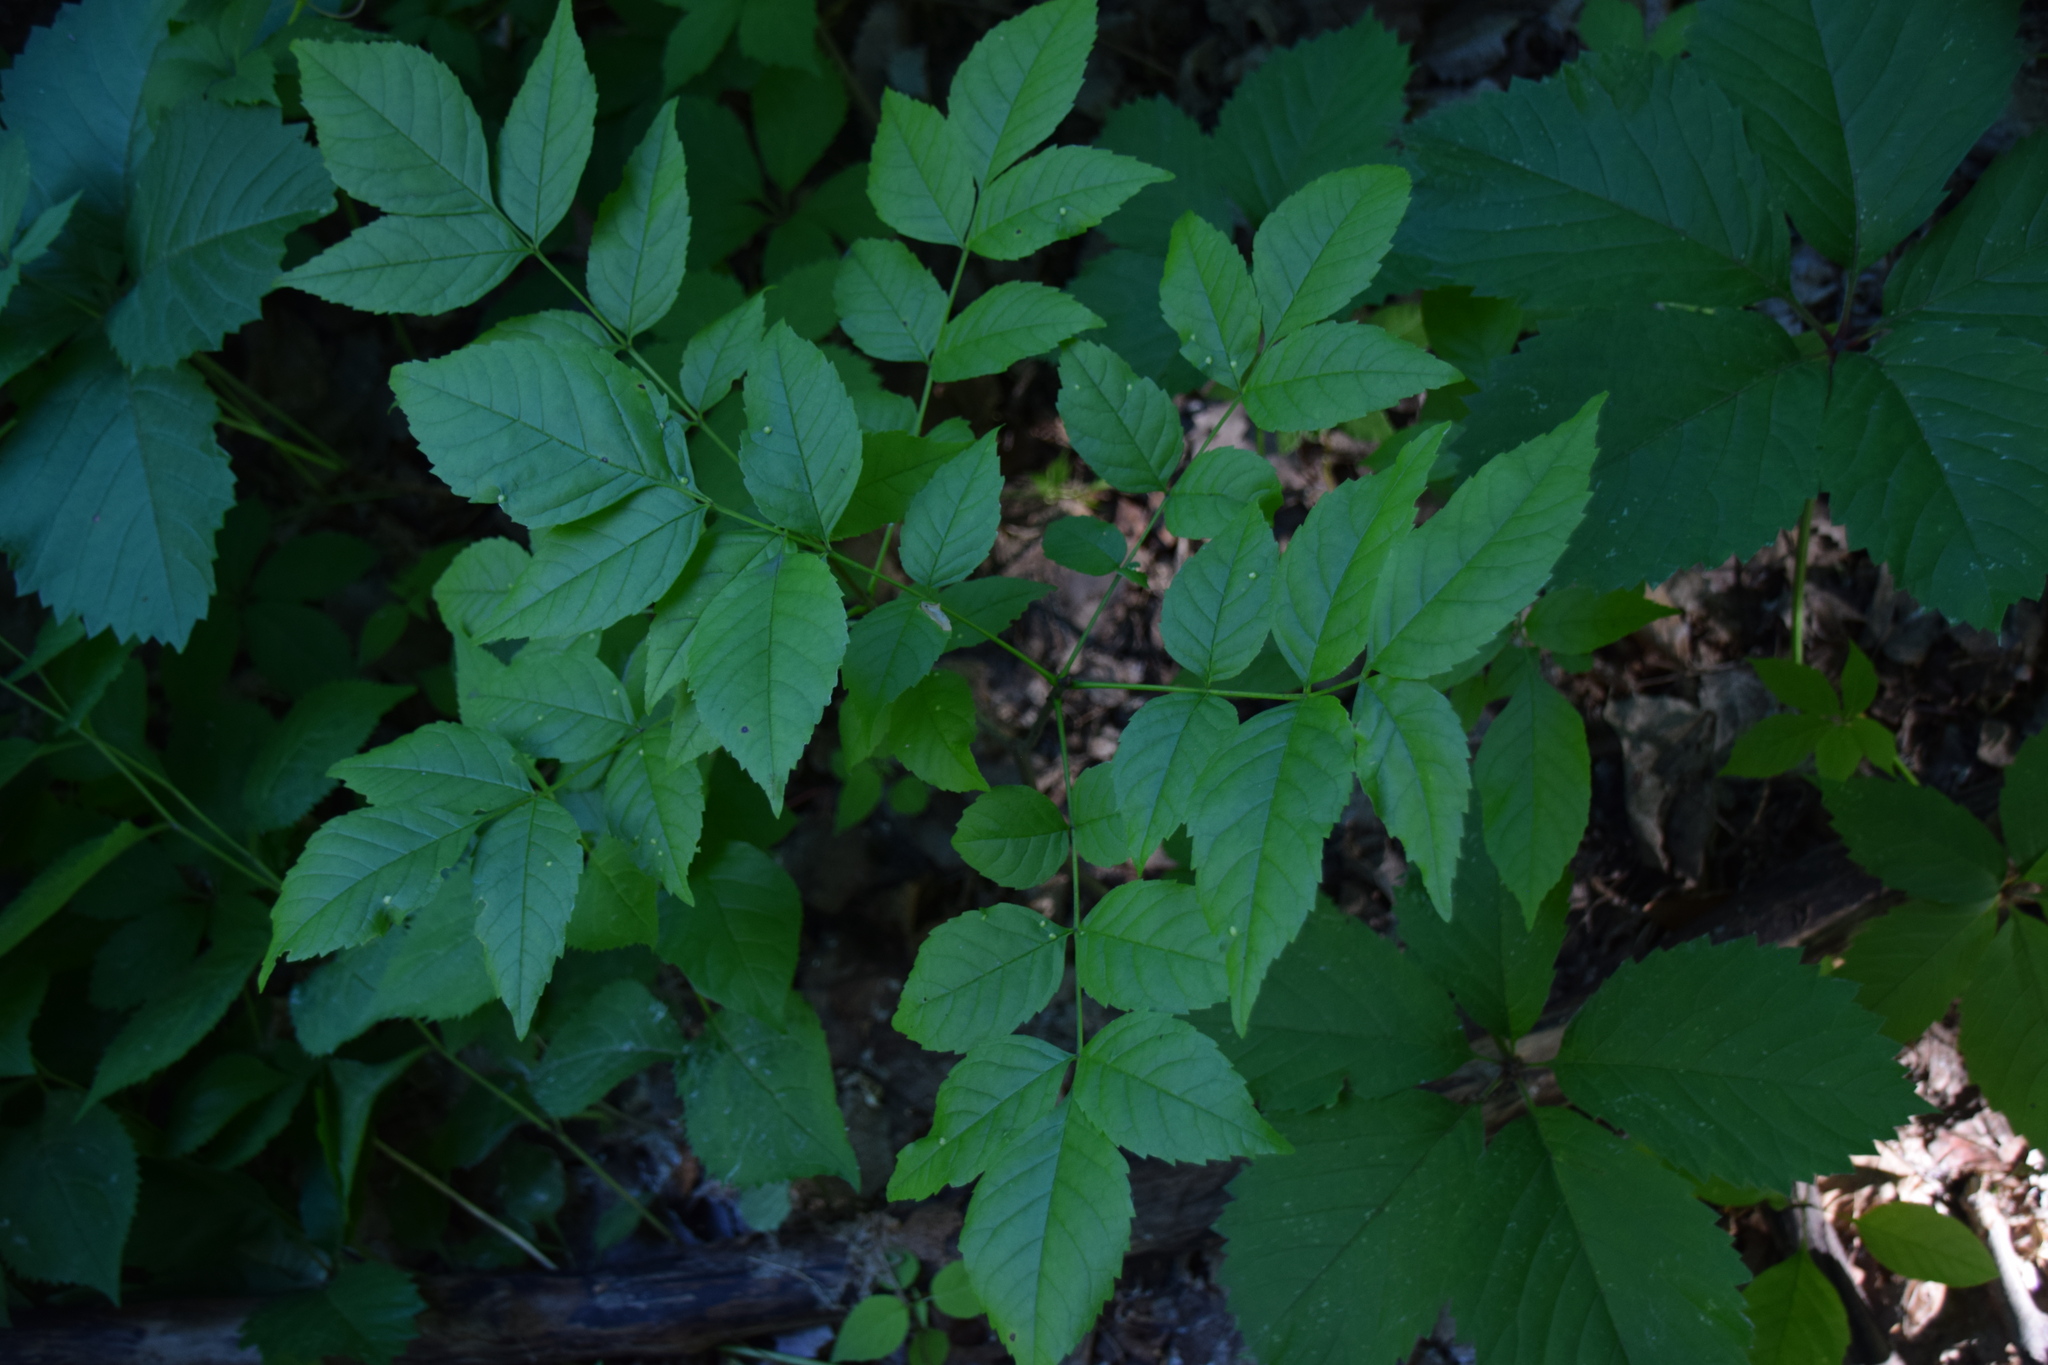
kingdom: Plantae
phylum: Tracheophyta
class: Magnoliopsida
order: Lamiales
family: Oleaceae
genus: Fraxinus
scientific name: Fraxinus pennsylvanica
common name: Green ash
